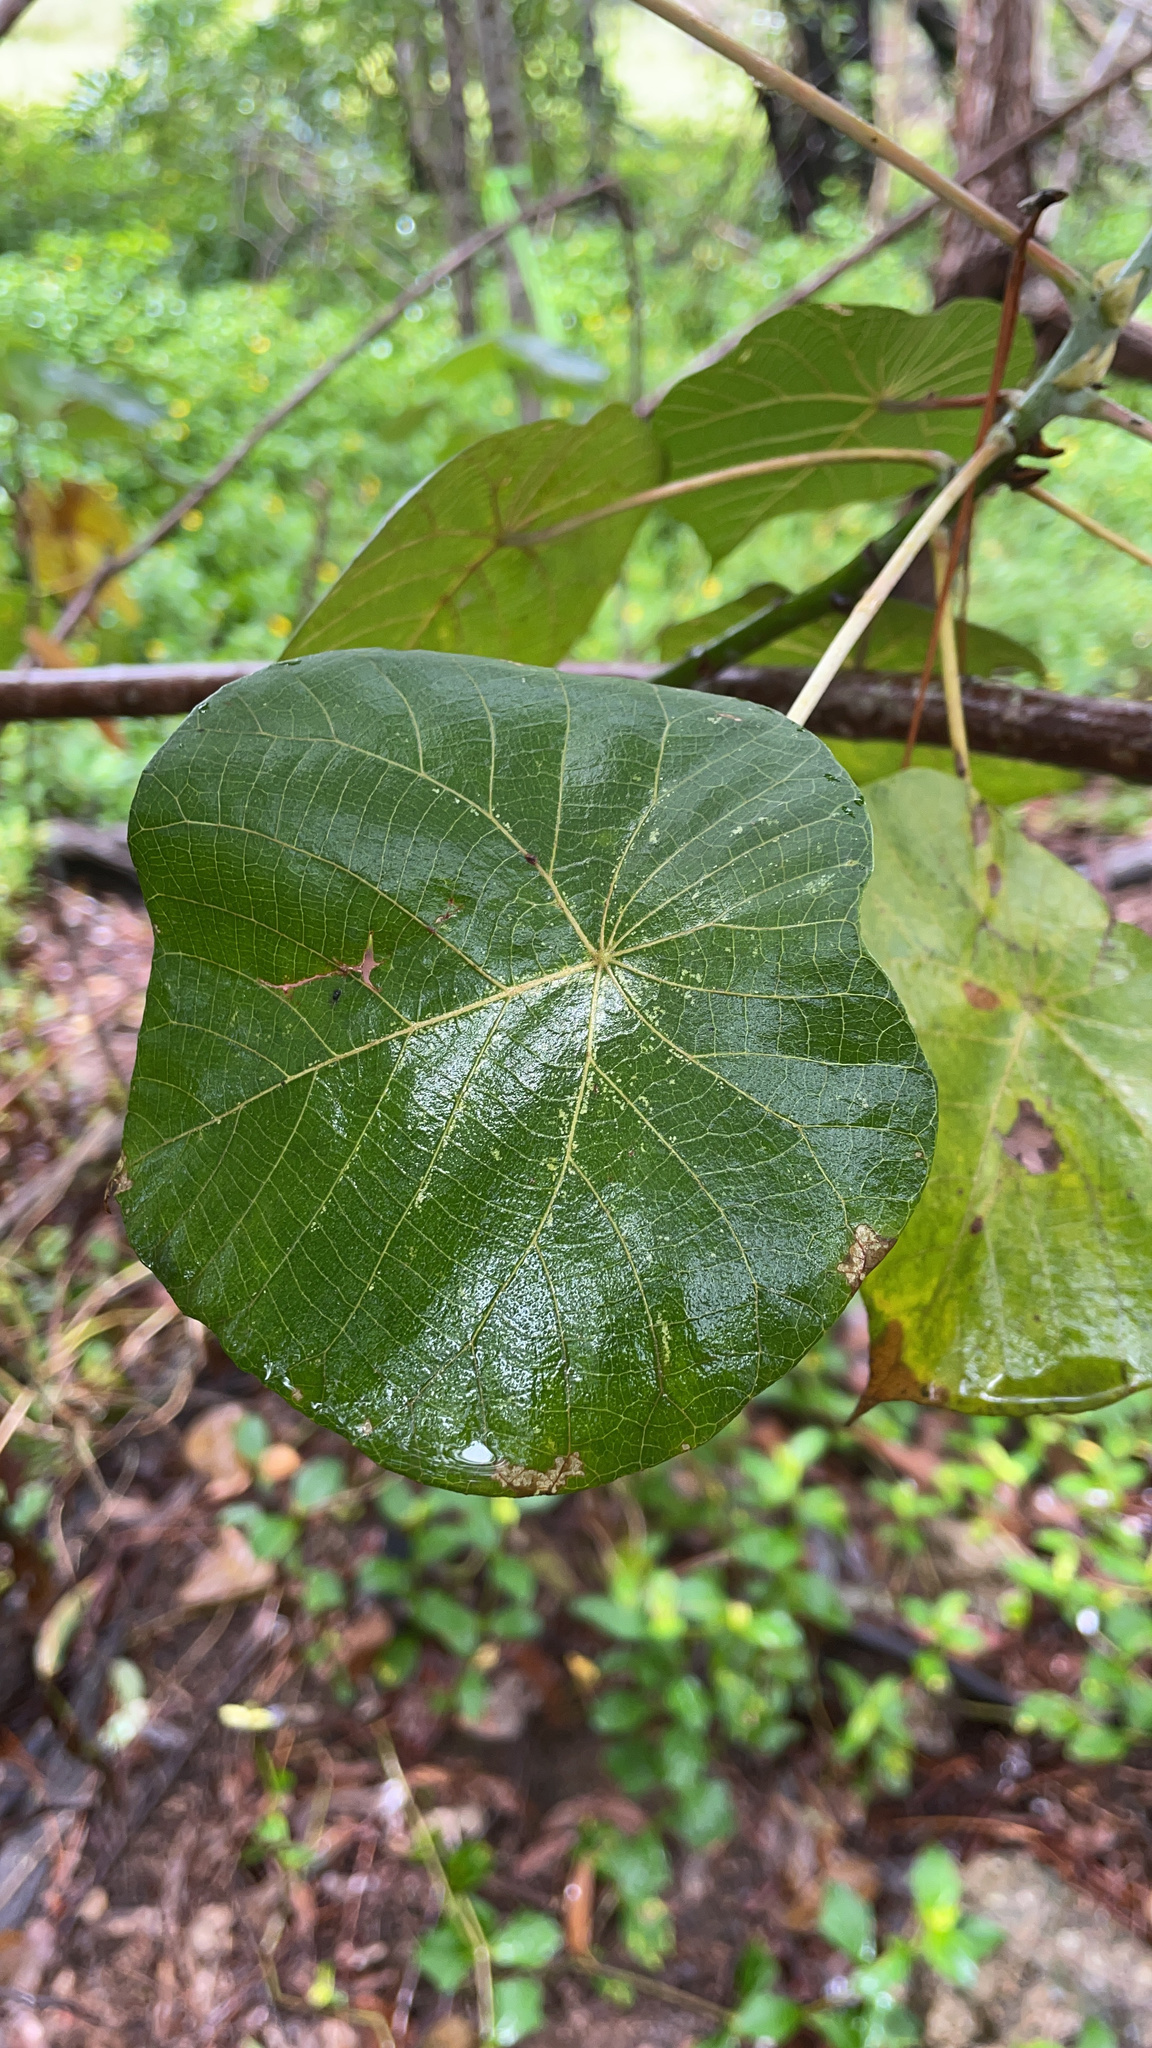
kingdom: Plantae
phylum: Tracheophyta
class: Magnoliopsida
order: Malpighiales
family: Euphorbiaceae
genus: Macaranga
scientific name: Macaranga tanarius
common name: Parasol leaf tree
